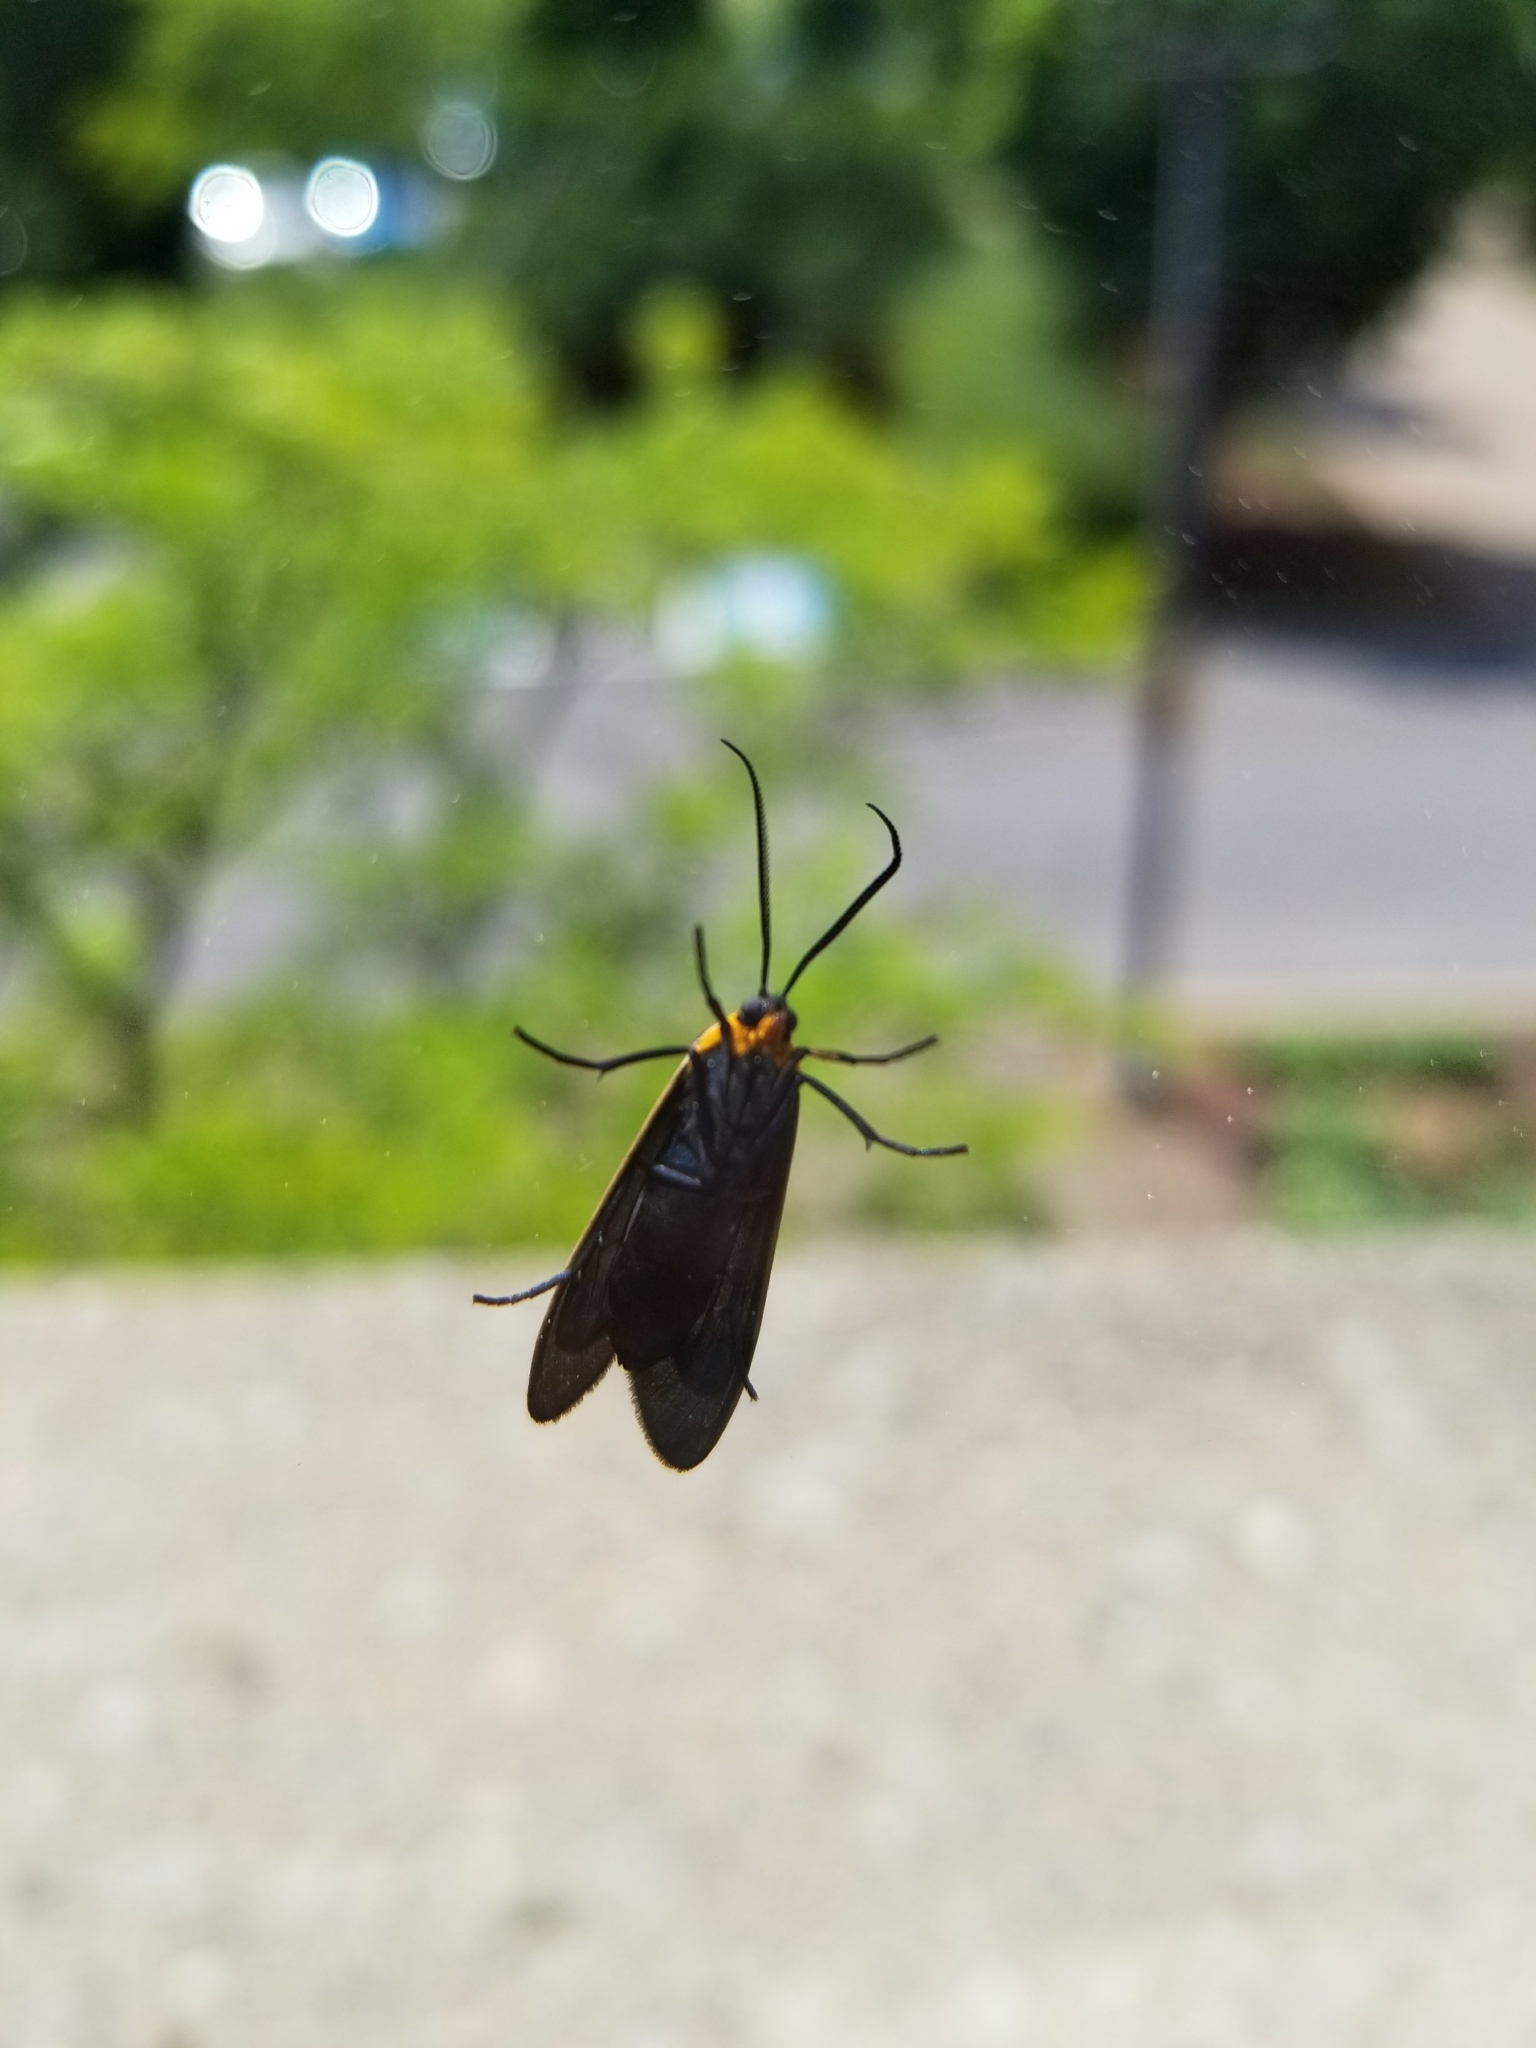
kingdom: Animalia
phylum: Arthropoda
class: Insecta
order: Lepidoptera
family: Erebidae
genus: Cisseps
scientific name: Cisseps fulvicollis
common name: Yellow-collared scape moth
